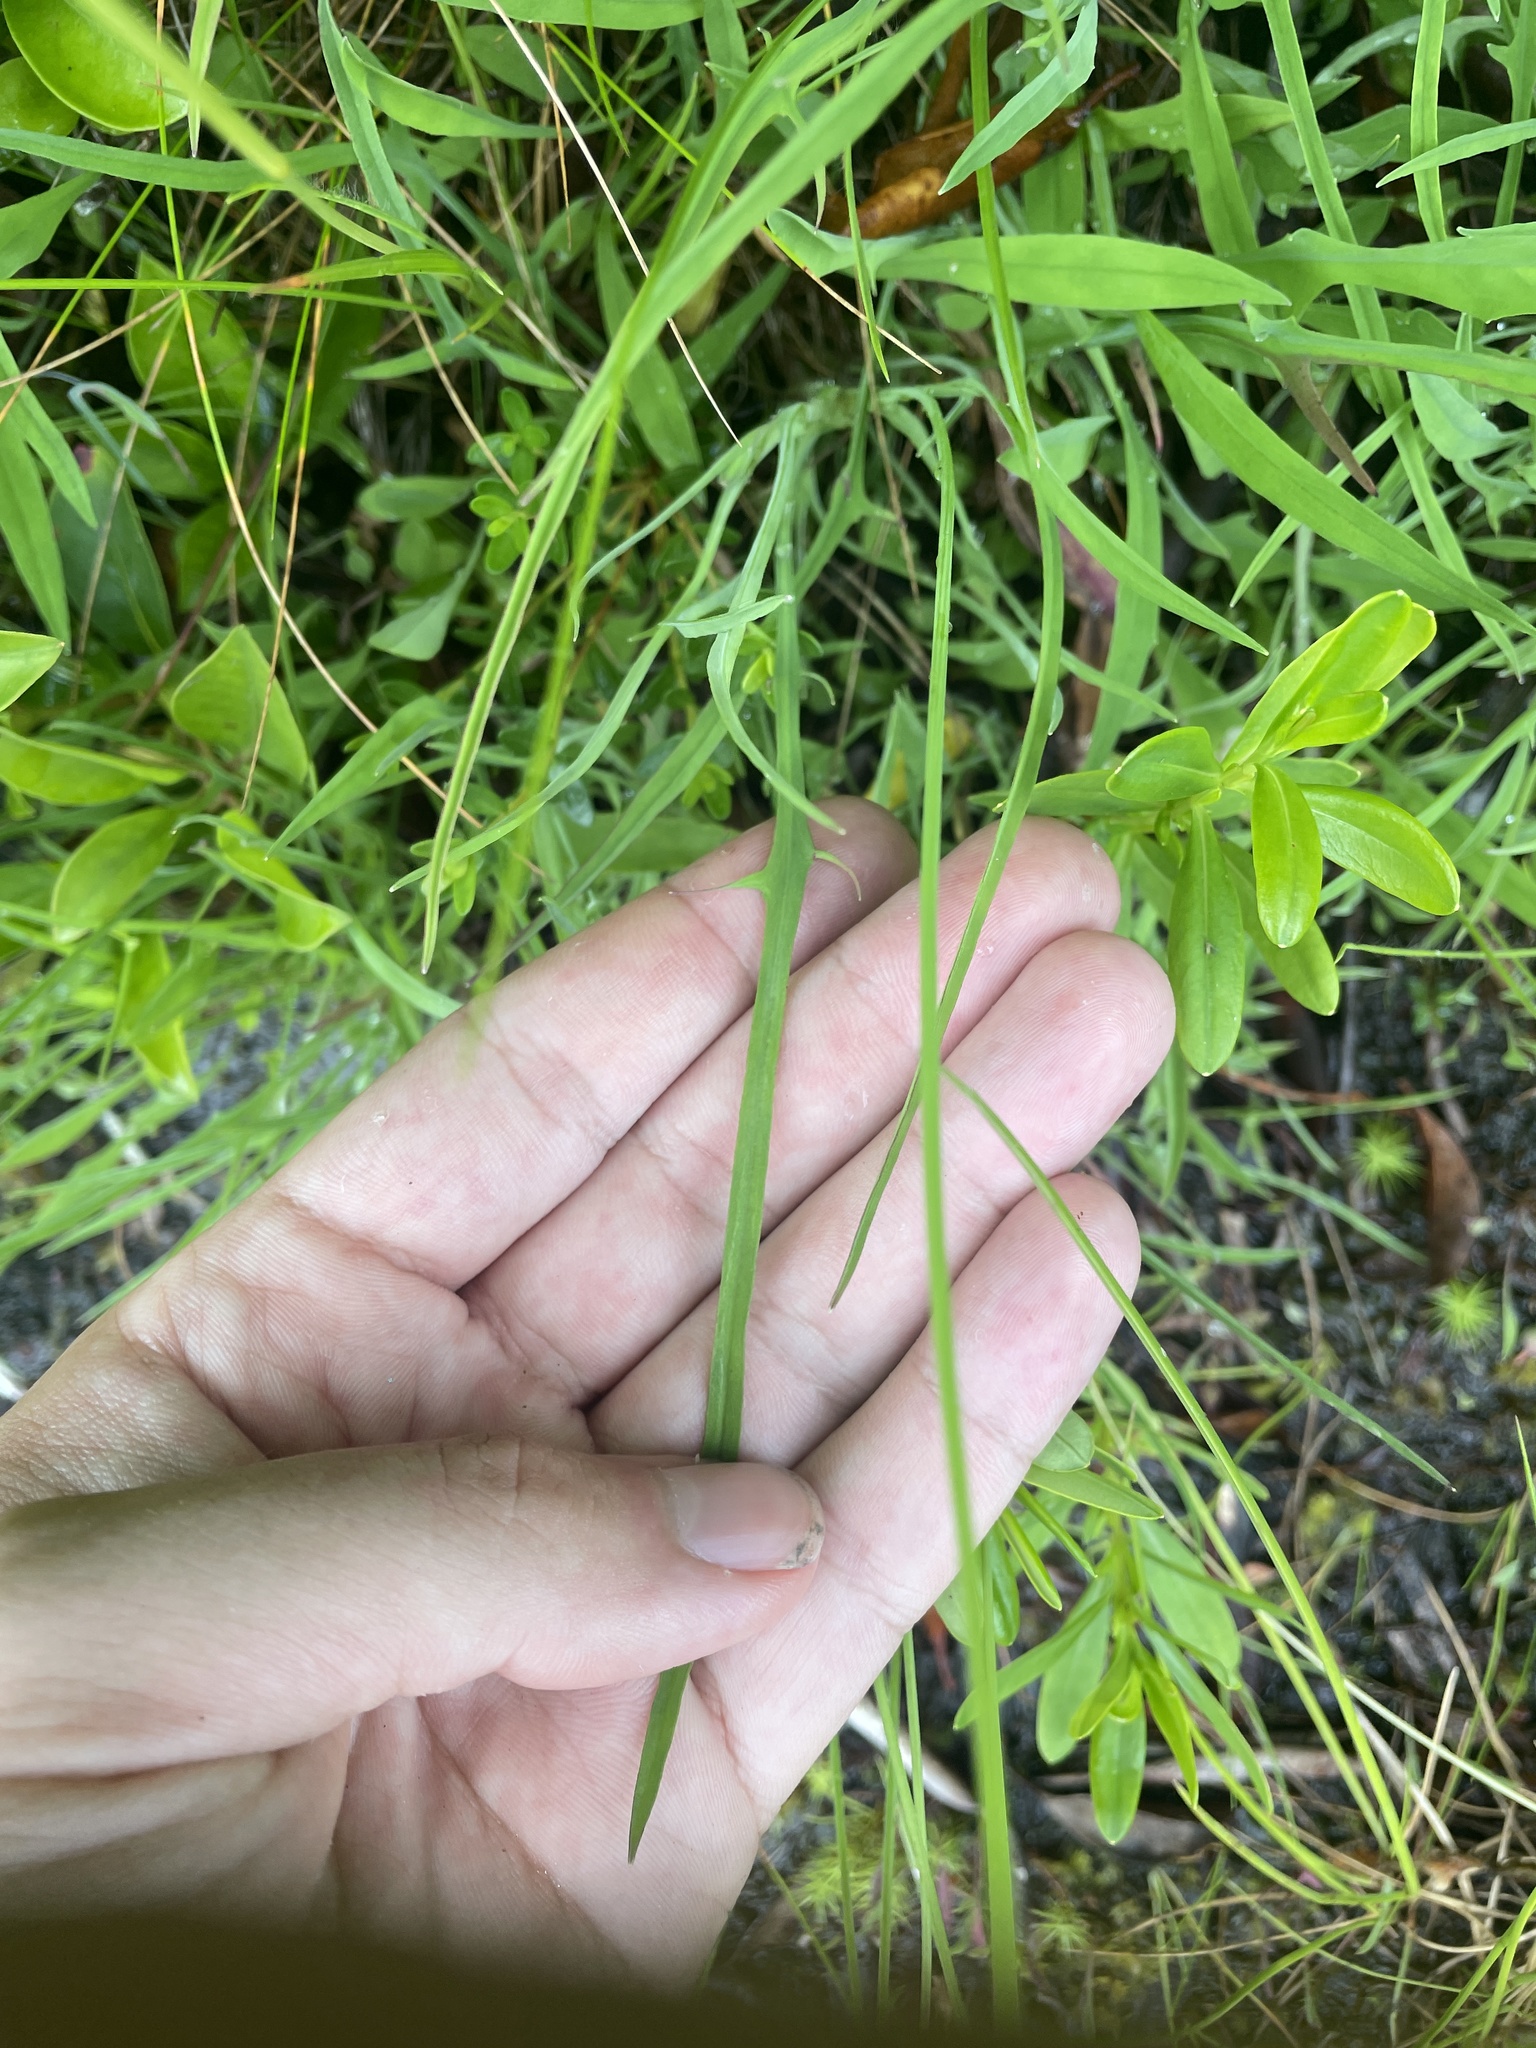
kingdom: Plantae
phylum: Tracheophyta
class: Magnoliopsida
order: Asterales
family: Asteraceae
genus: Krigia
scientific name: Krigia montana
